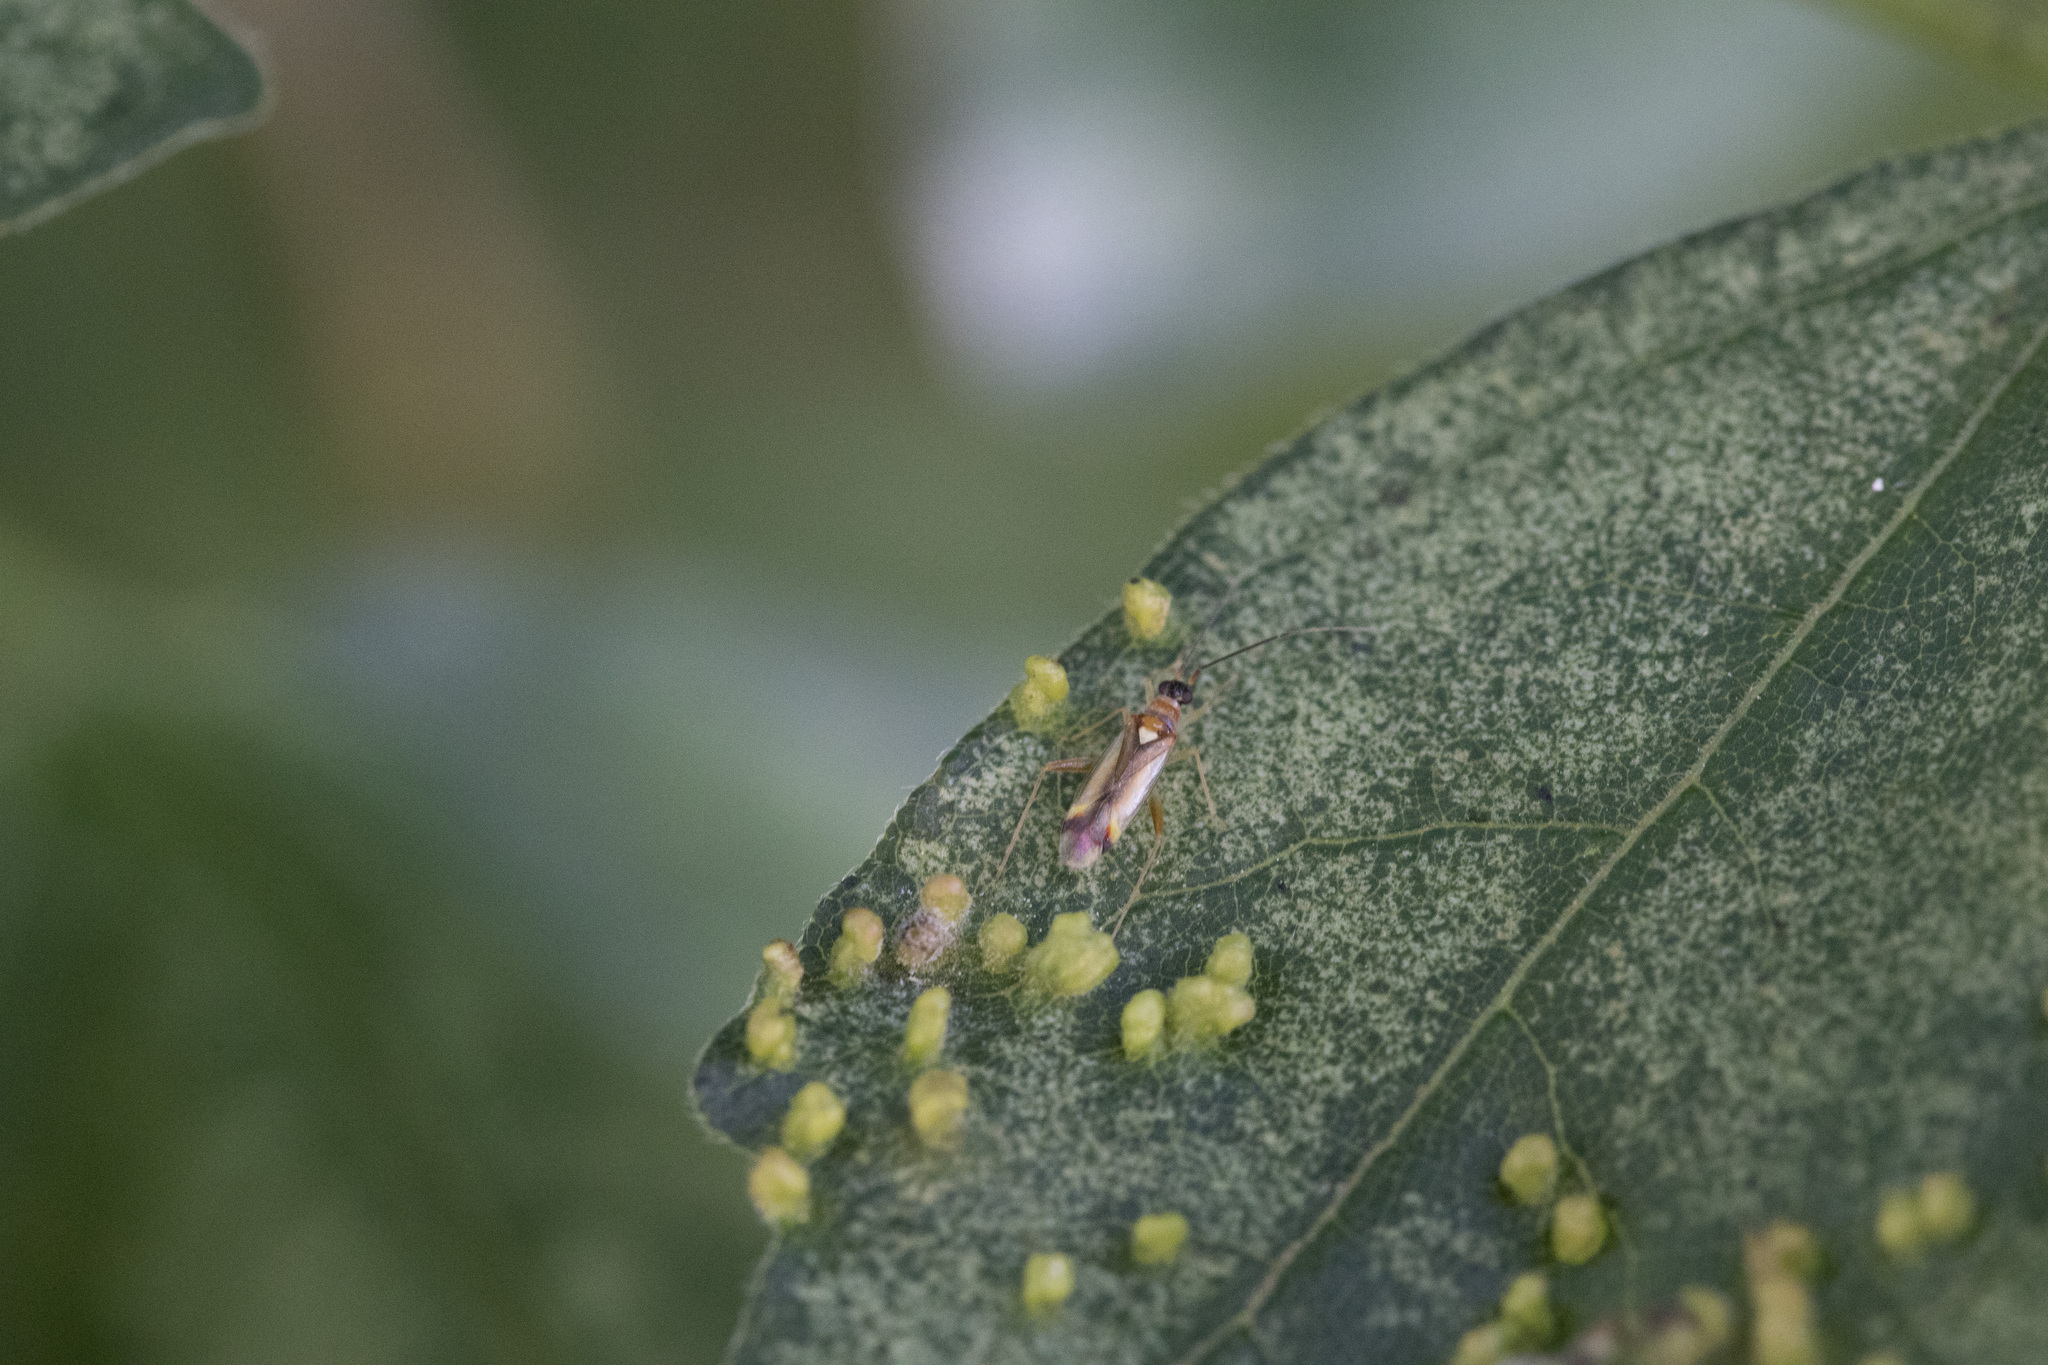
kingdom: Animalia
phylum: Arthropoda
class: Insecta
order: Hemiptera
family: Miridae
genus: Campyloneura
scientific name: Campyloneura virgula
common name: Predatory bug
